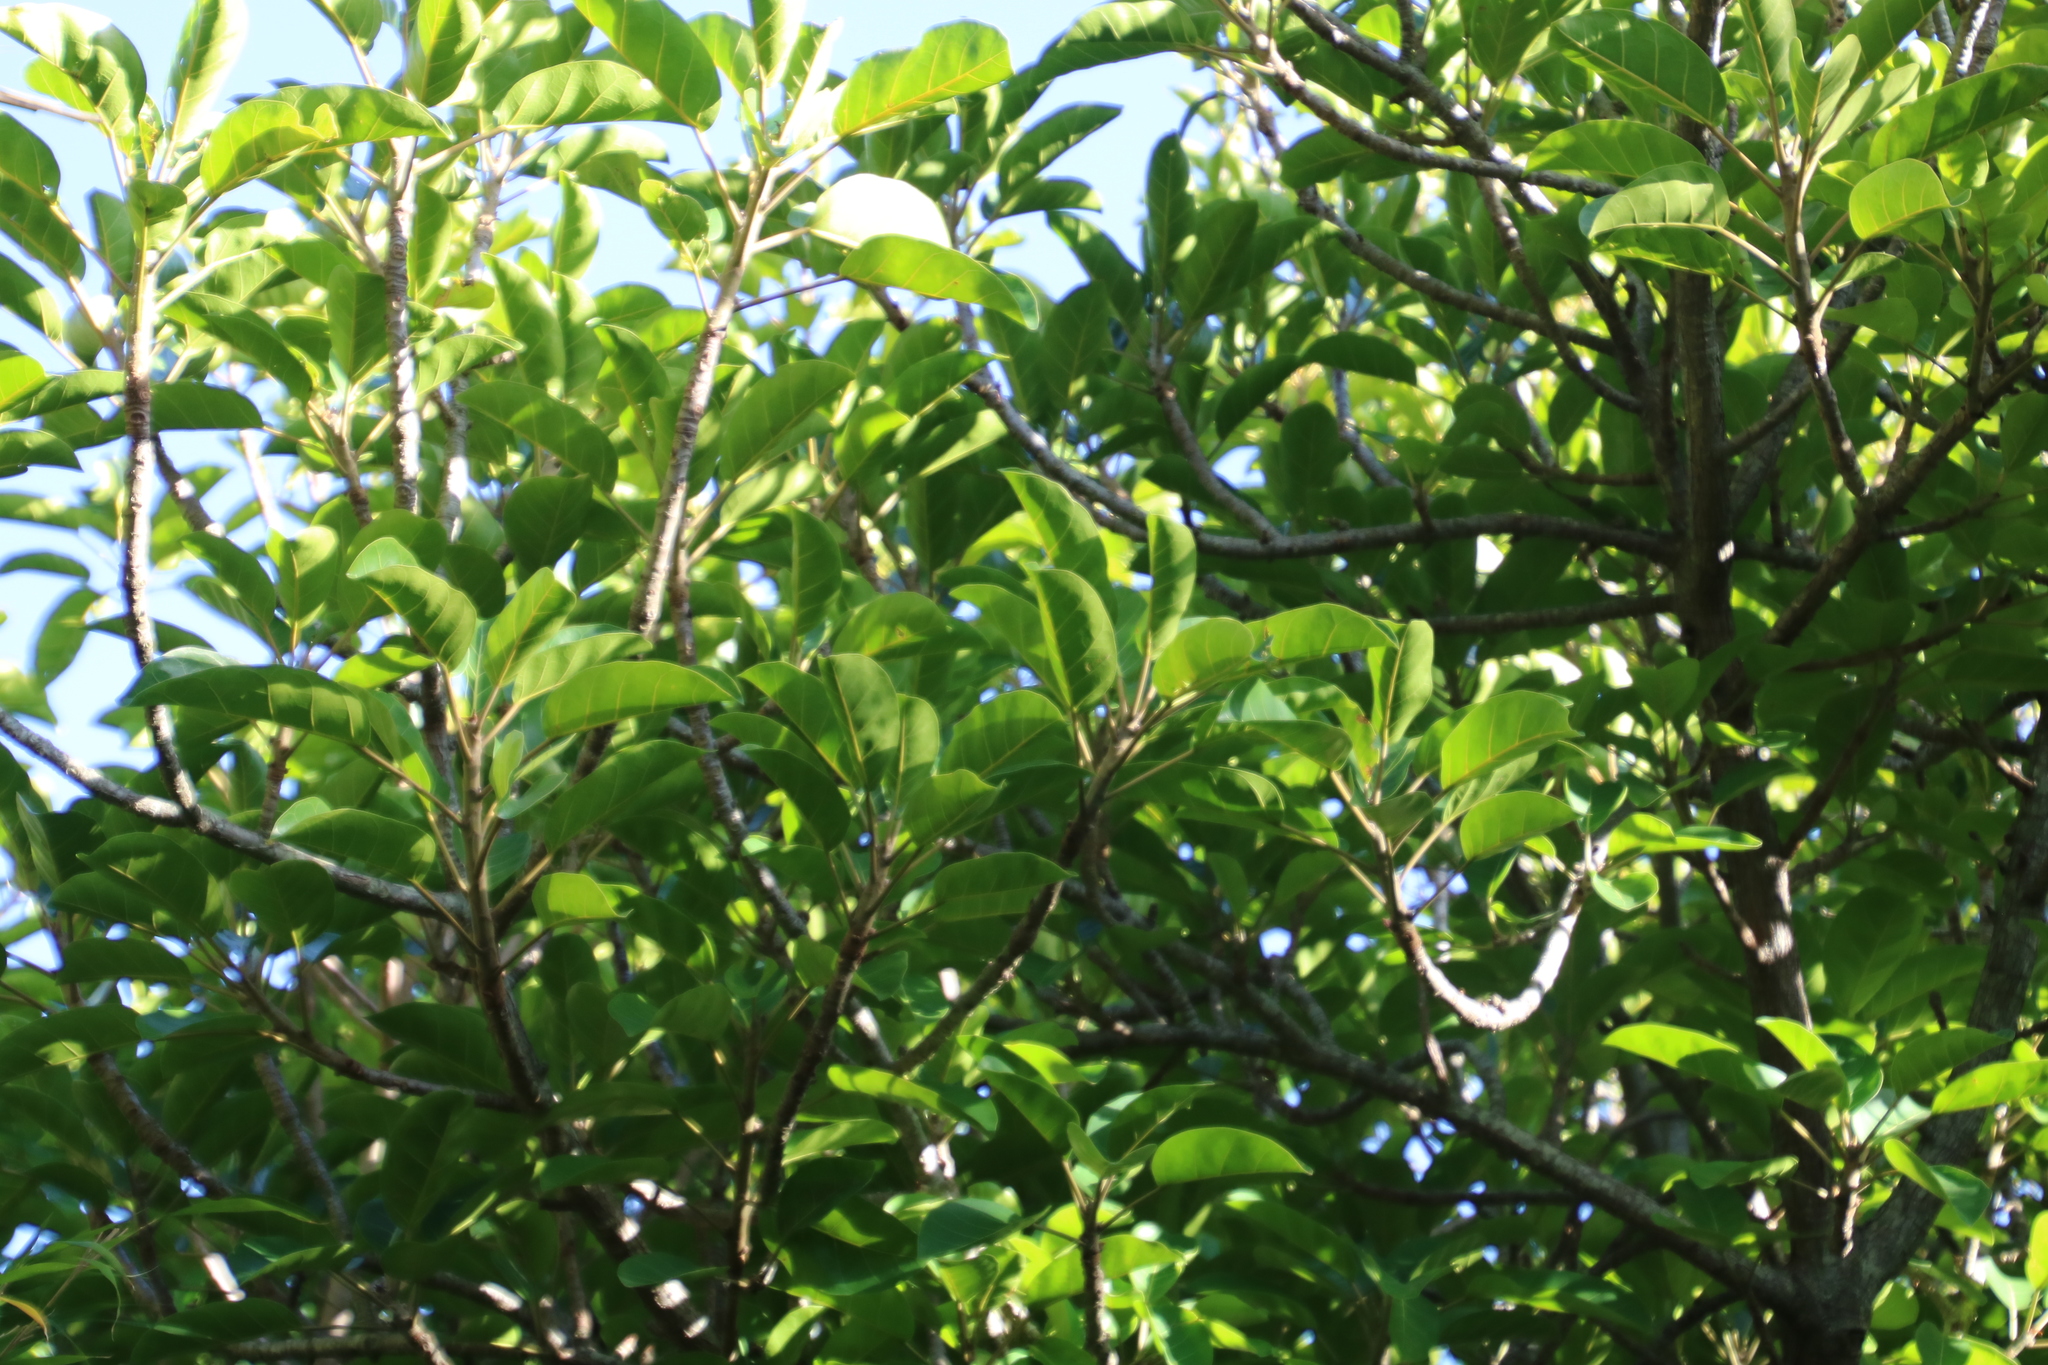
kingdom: Plantae
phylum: Tracheophyta
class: Magnoliopsida
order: Rosales
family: Rosaceae
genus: Malus
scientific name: Malus domestica
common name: Apple
